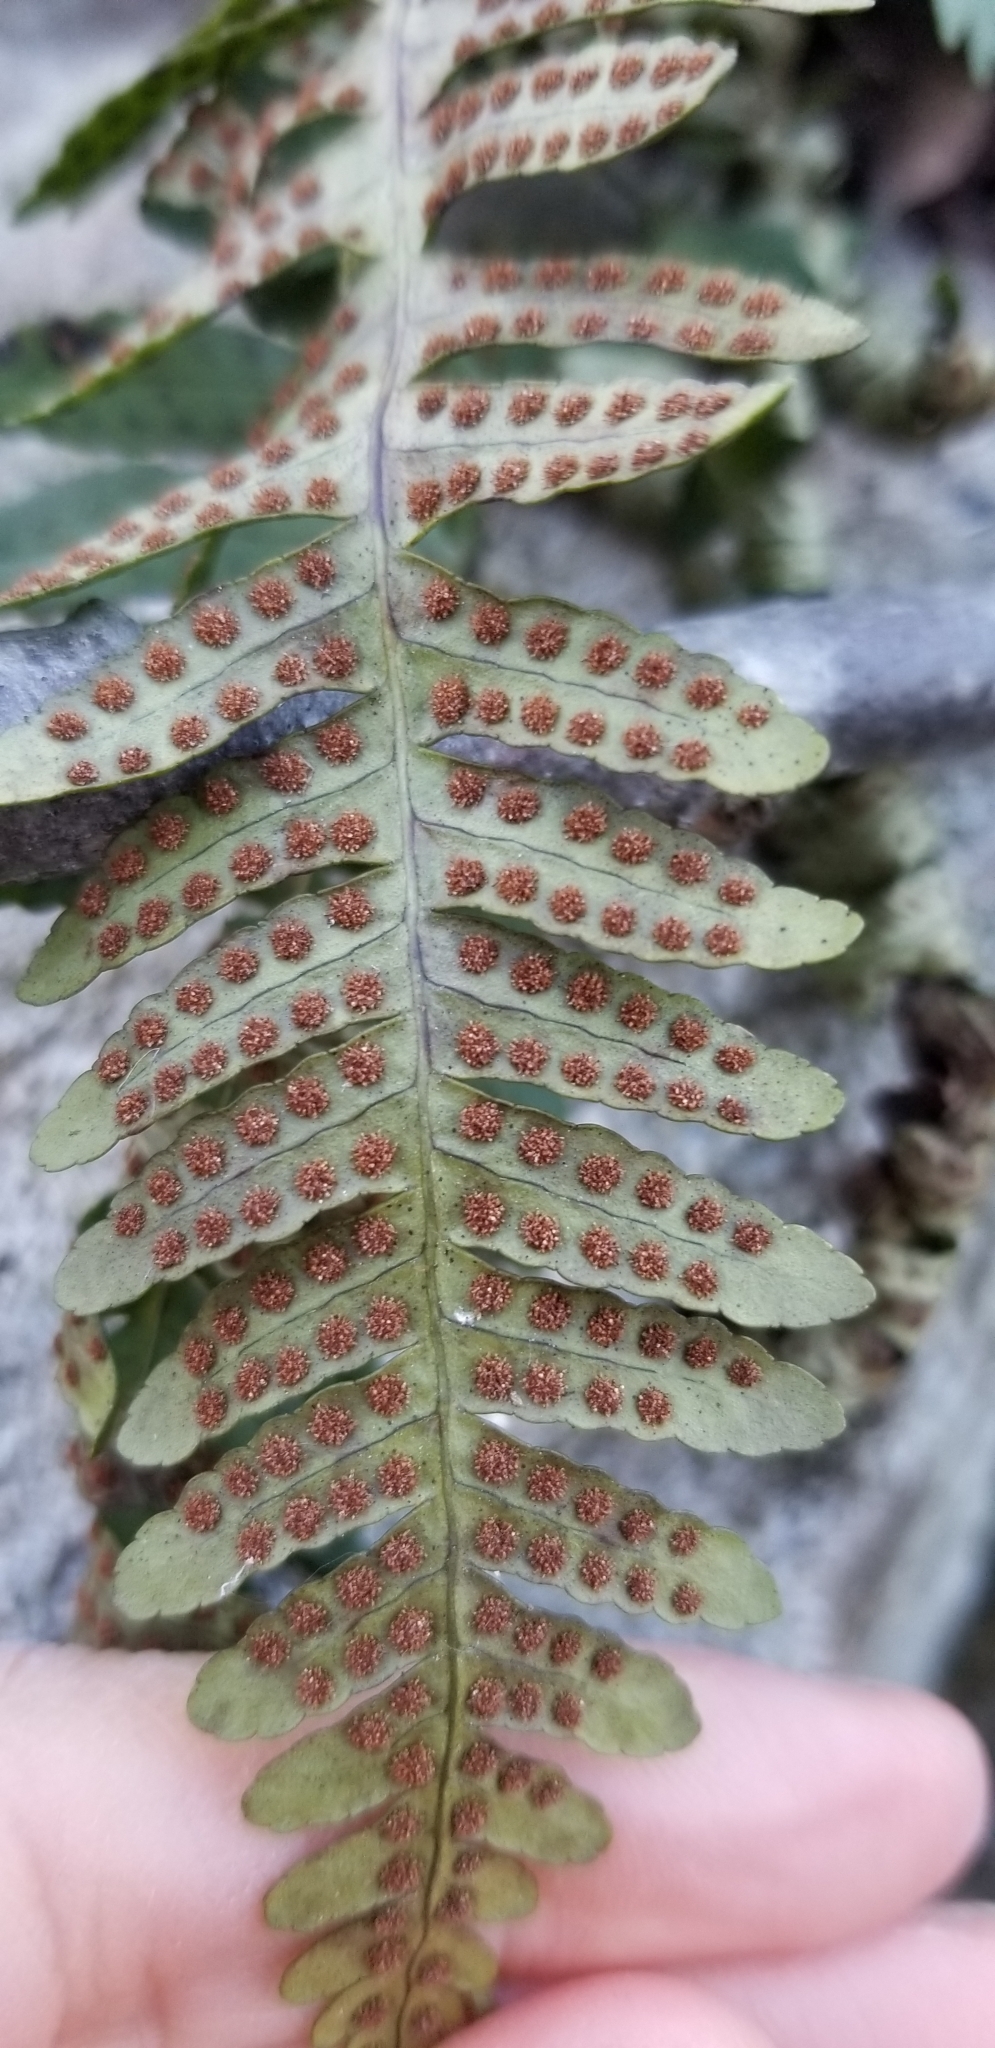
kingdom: Plantae
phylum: Tracheophyta
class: Polypodiopsida
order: Polypodiales
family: Polypodiaceae
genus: Polypodium
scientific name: Polypodium virginianum
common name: American wall fern
